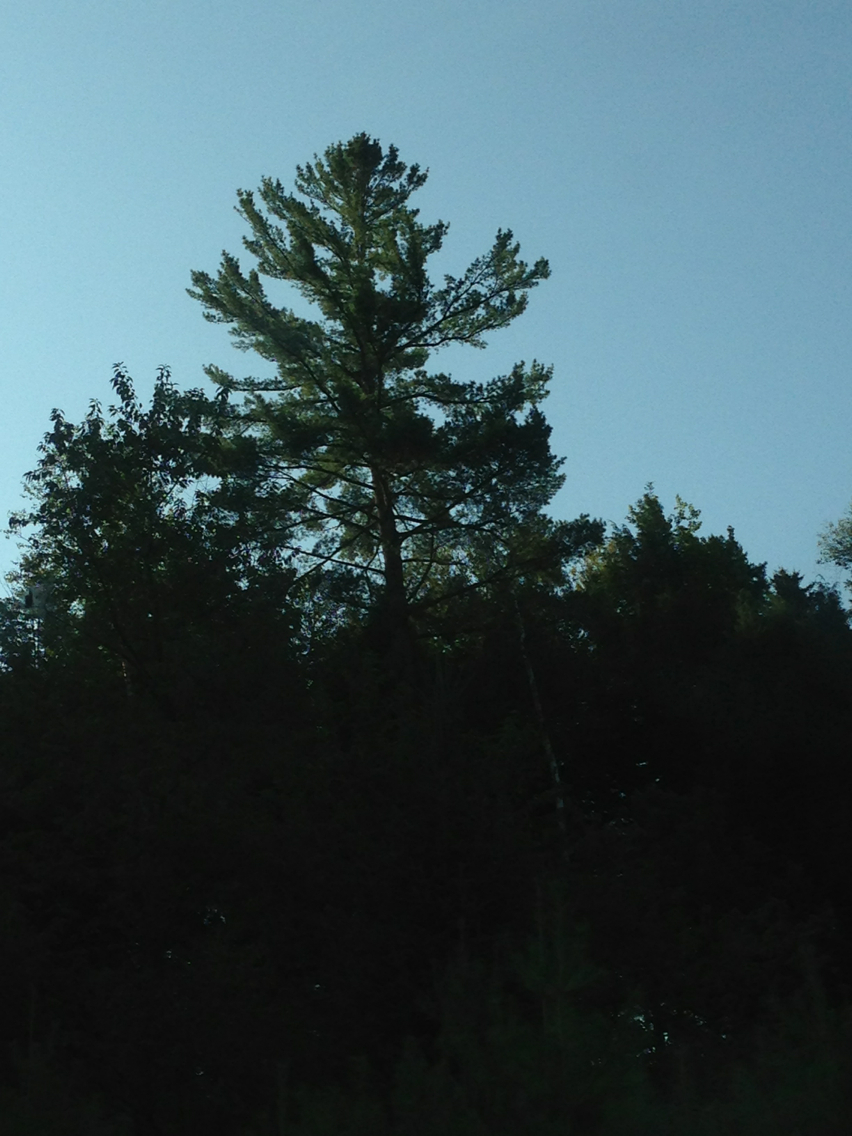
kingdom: Plantae
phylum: Tracheophyta
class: Pinopsida
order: Pinales
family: Pinaceae
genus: Pinus
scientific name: Pinus strobus
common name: Weymouth pine
